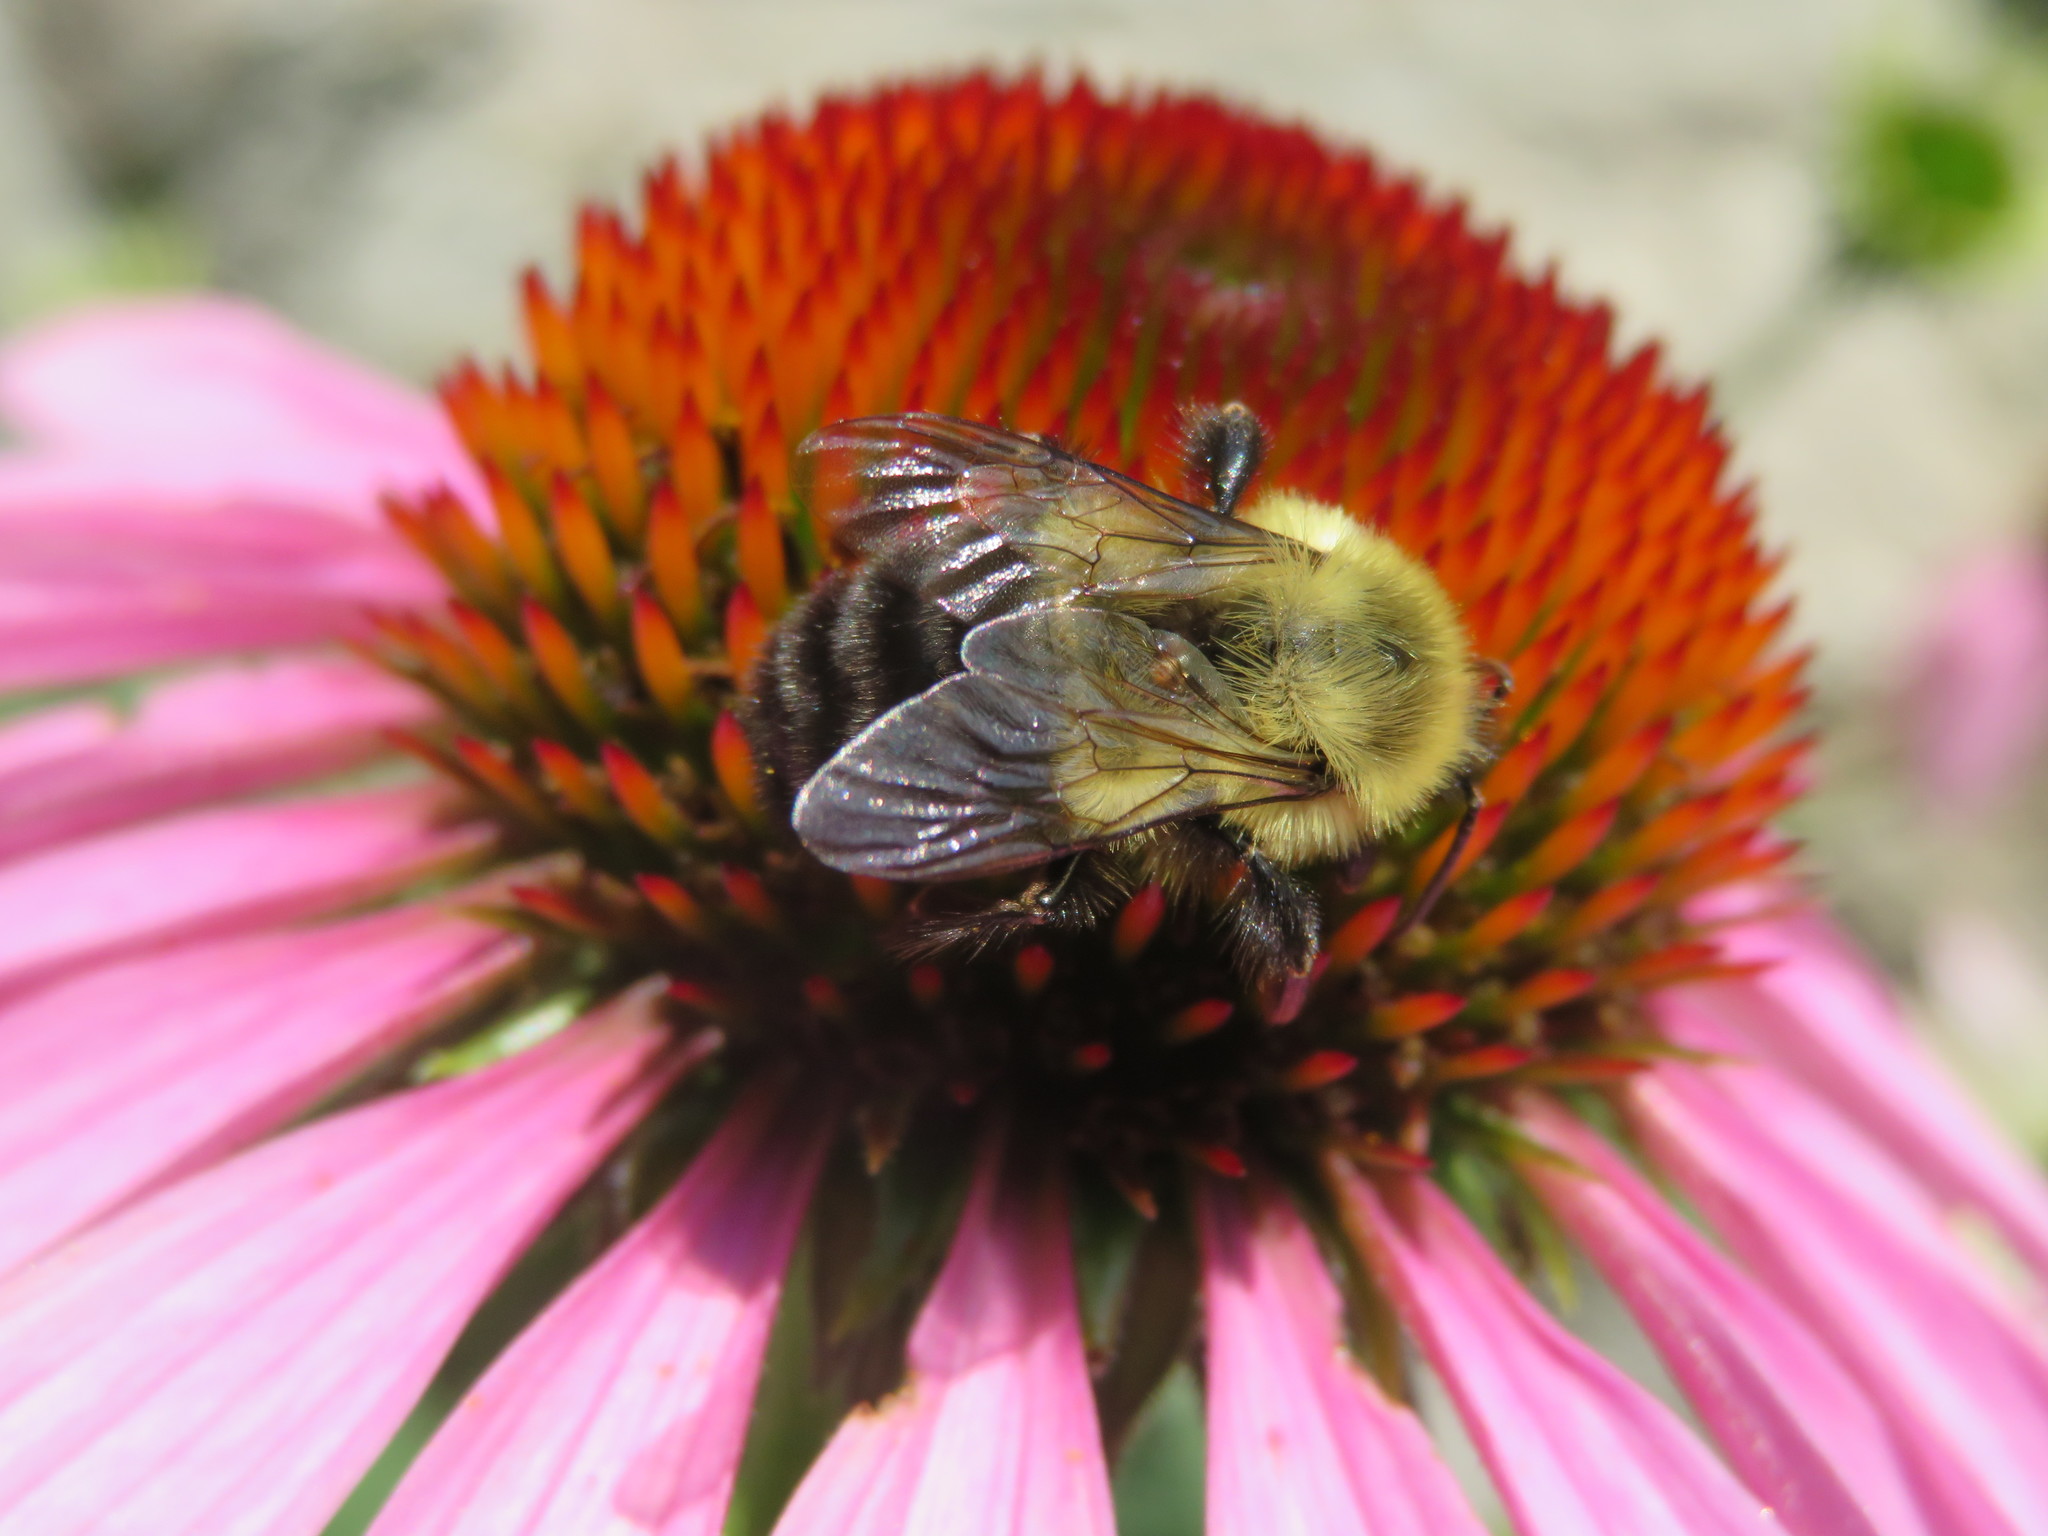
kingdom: Animalia
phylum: Arthropoda
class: Insecta
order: Hymenoptera
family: Apidae
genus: Bombus
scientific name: Bombus impatiens
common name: Common eastern bumble bee
